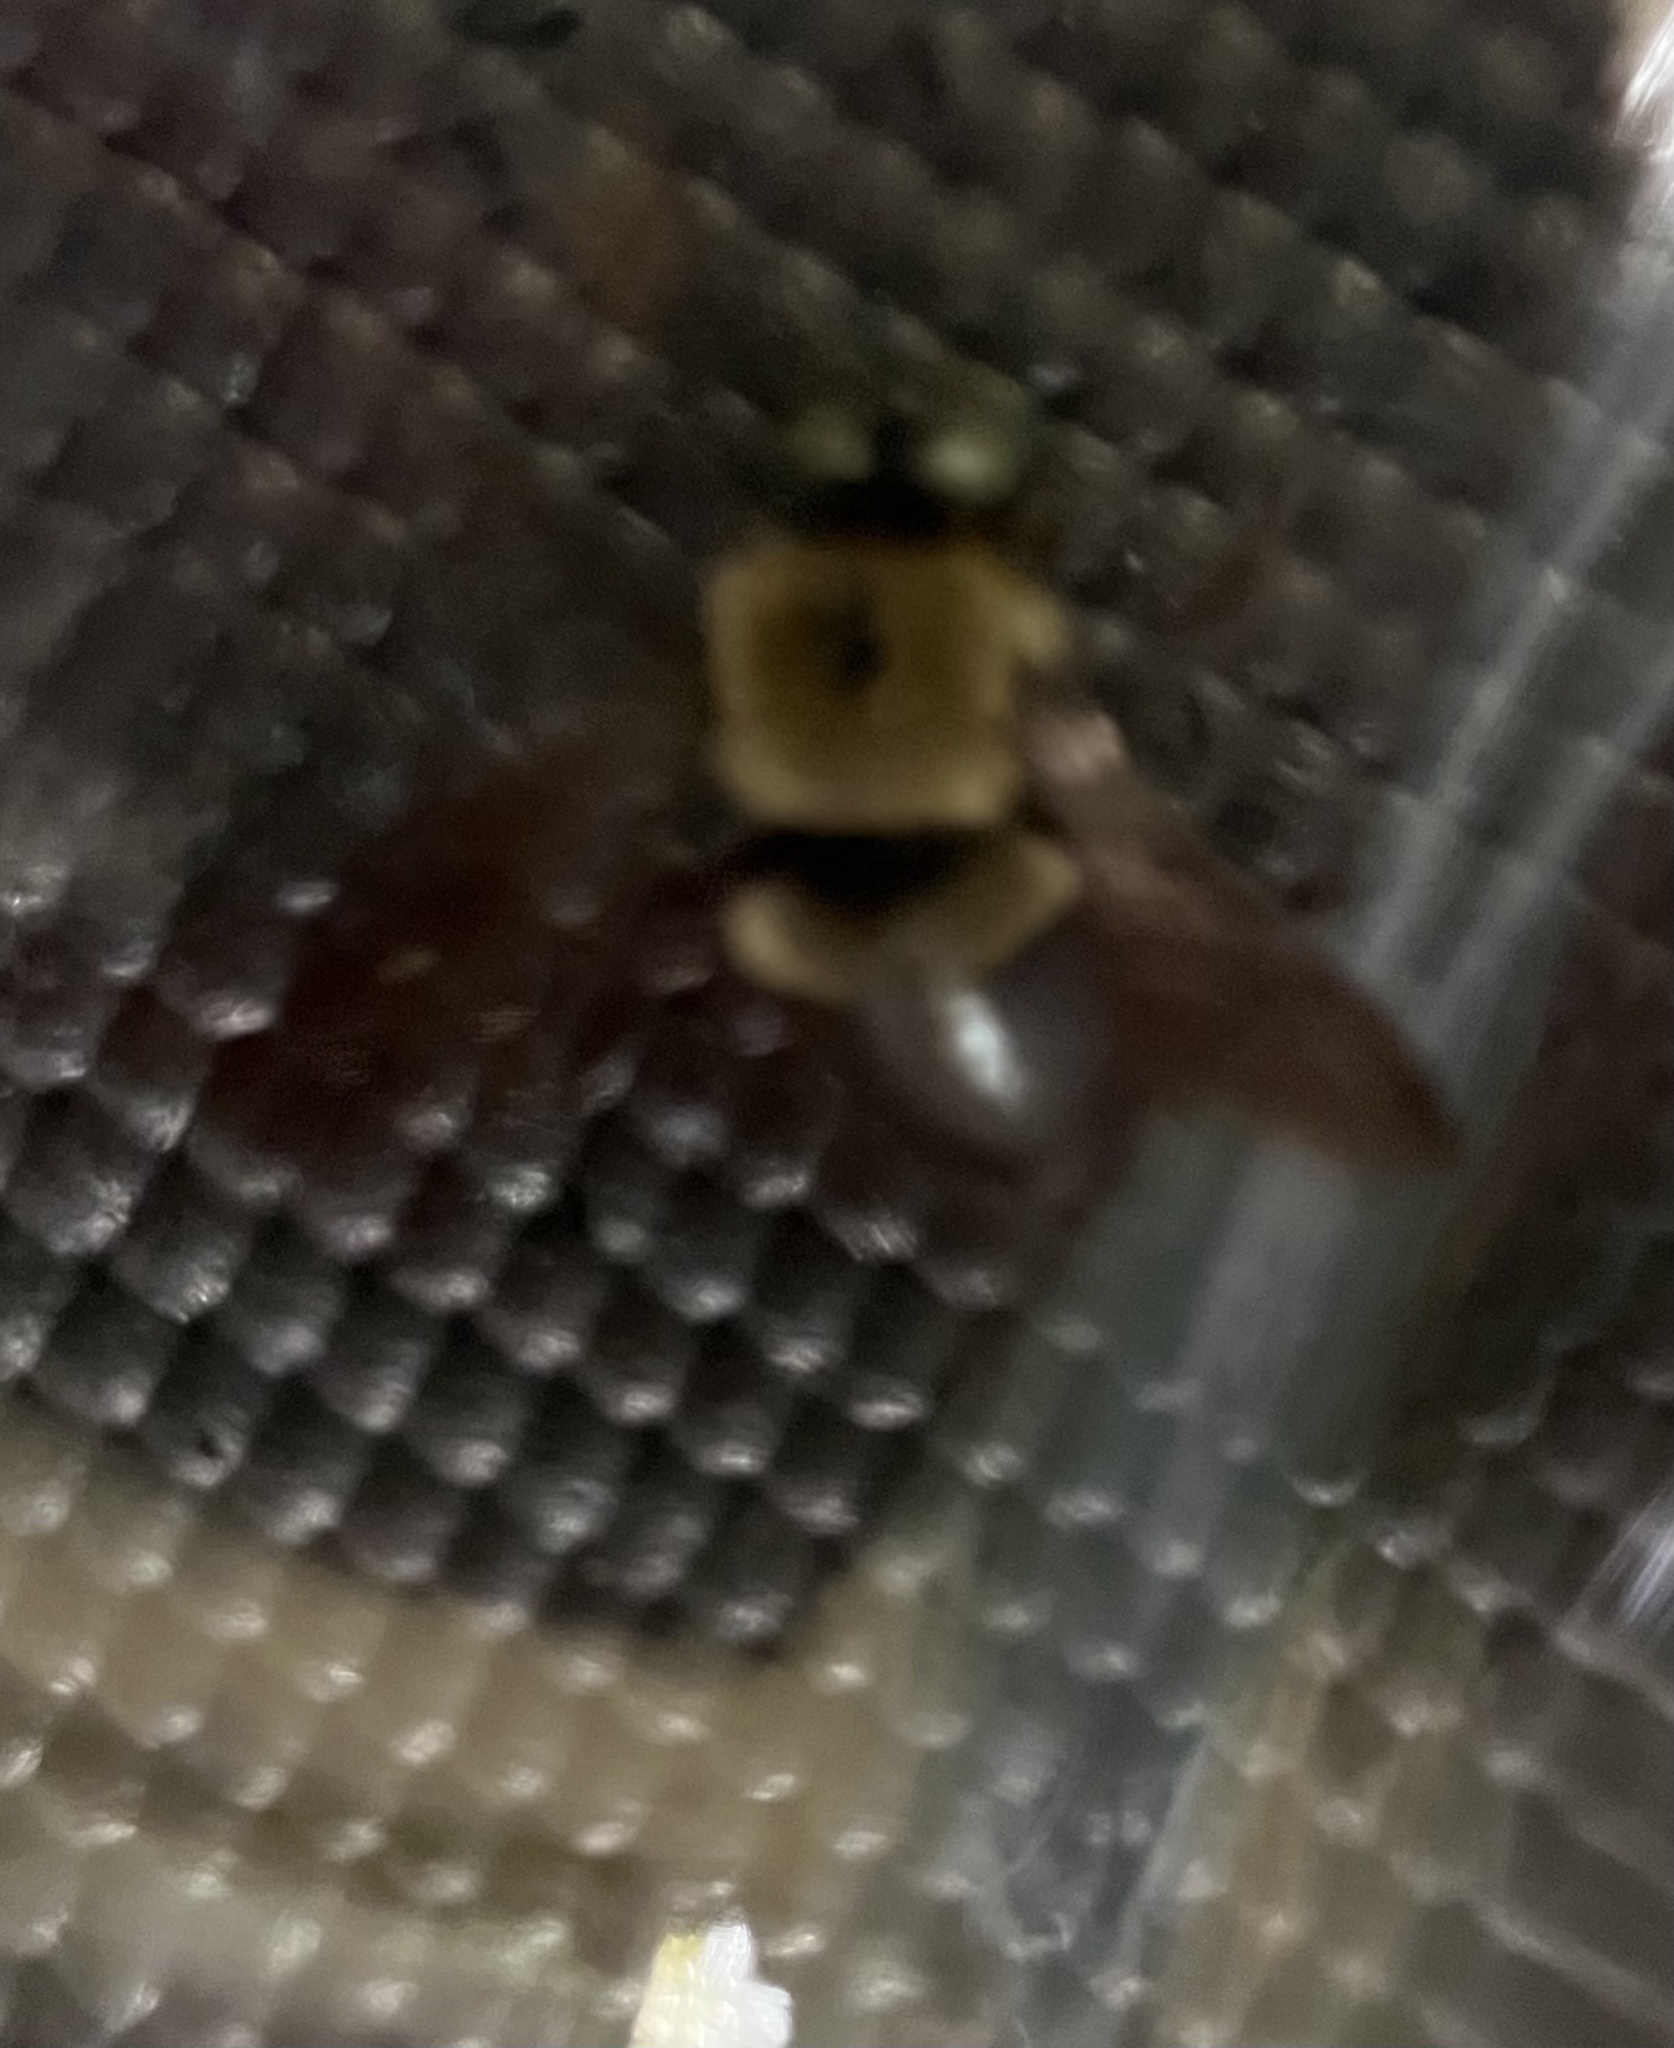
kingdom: Animalia
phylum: Arthropoda
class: Insecta
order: Hymenoptera
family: Apidae
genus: Xylocopa
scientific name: Xylocopa virginica
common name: Carpenter bee
